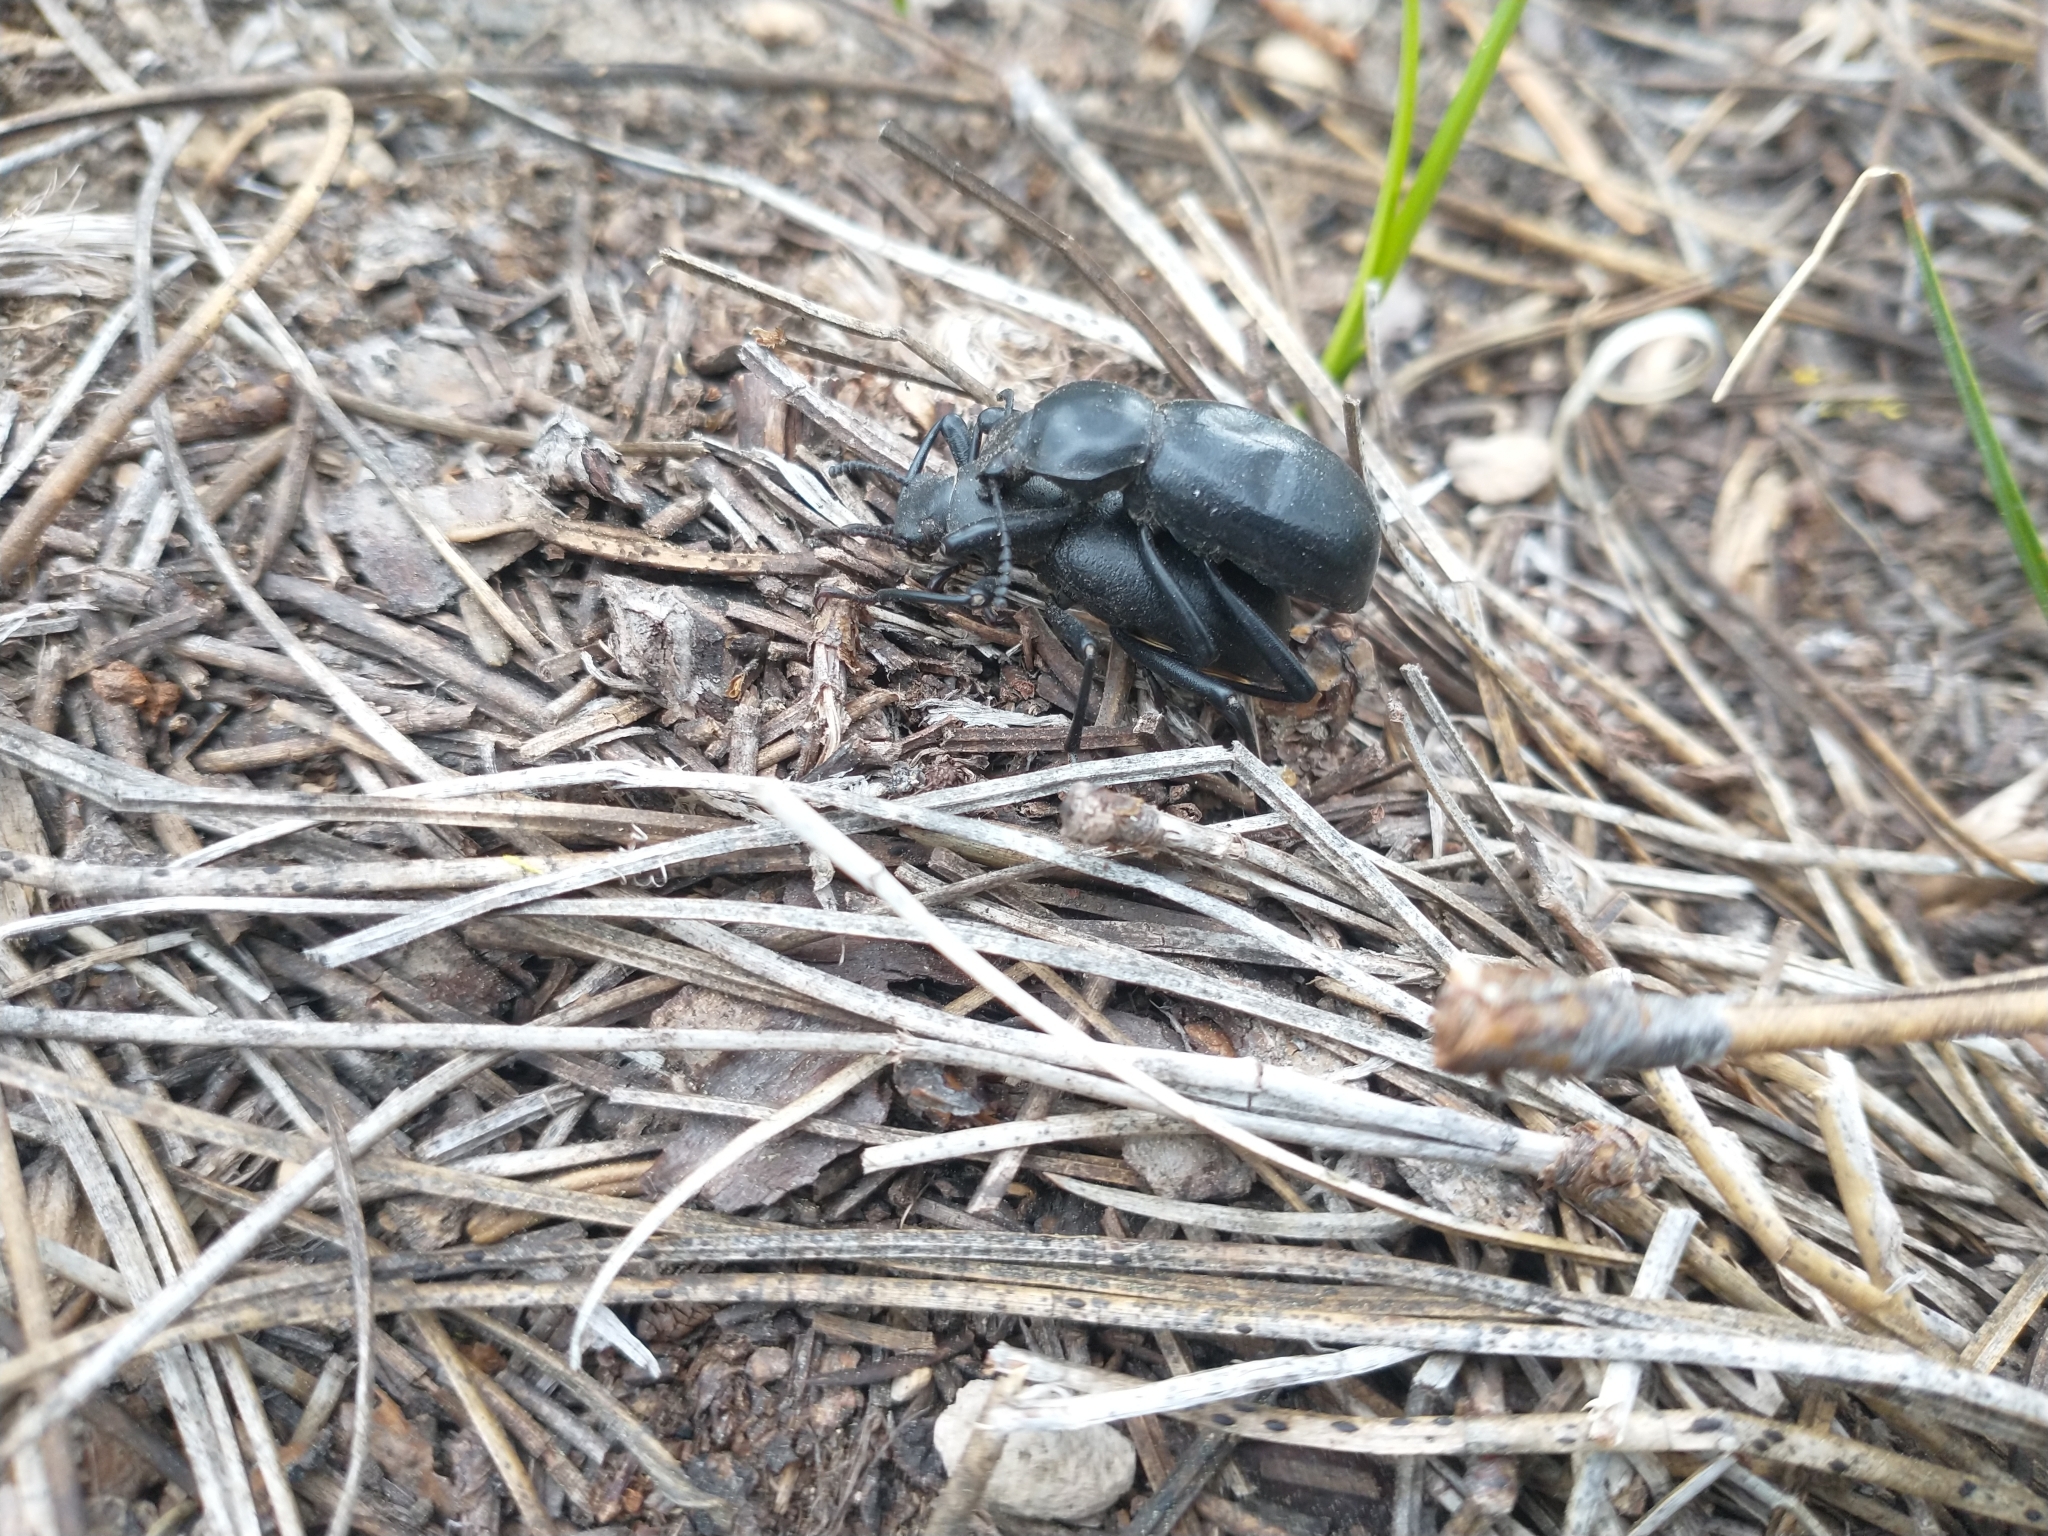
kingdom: Animalia
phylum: Arthropoda
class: Insecta
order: Coleoptera
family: Tenebrionidae
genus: Coelocnemis
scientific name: Coelocnemis dilaticollis
